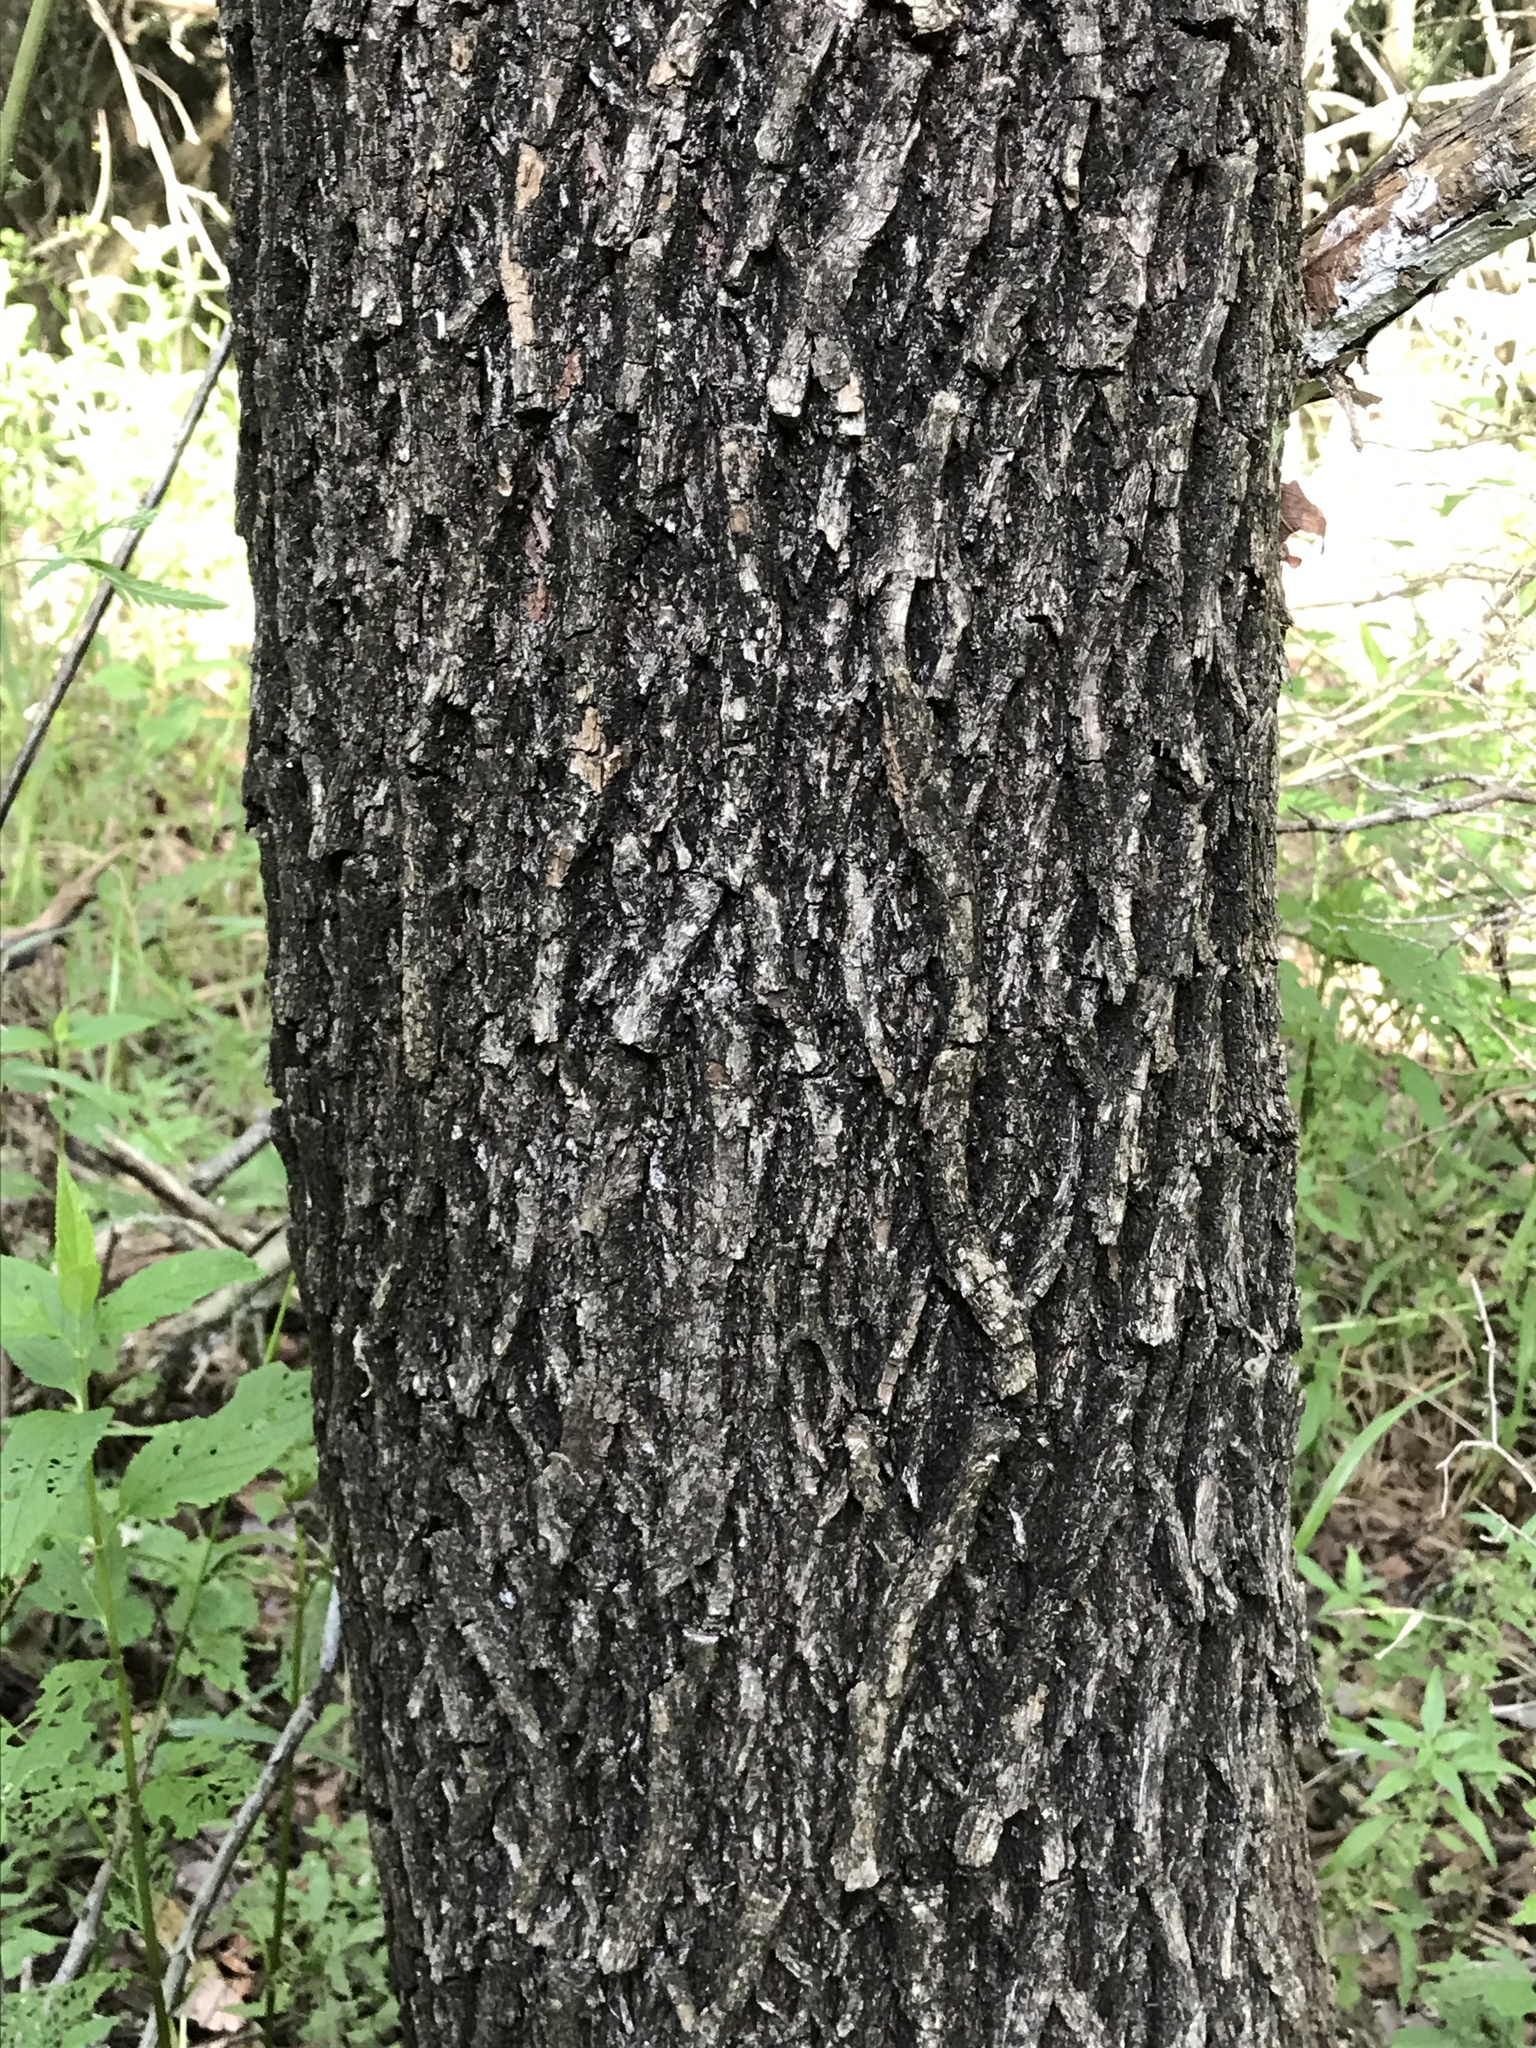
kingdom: Plantae
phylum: Tracheophyta
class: Magnoliopsida
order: Ericales
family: Sapotaceae
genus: Sideroxylon
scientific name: Sideroxylon lanuginosum
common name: Chittamwood
